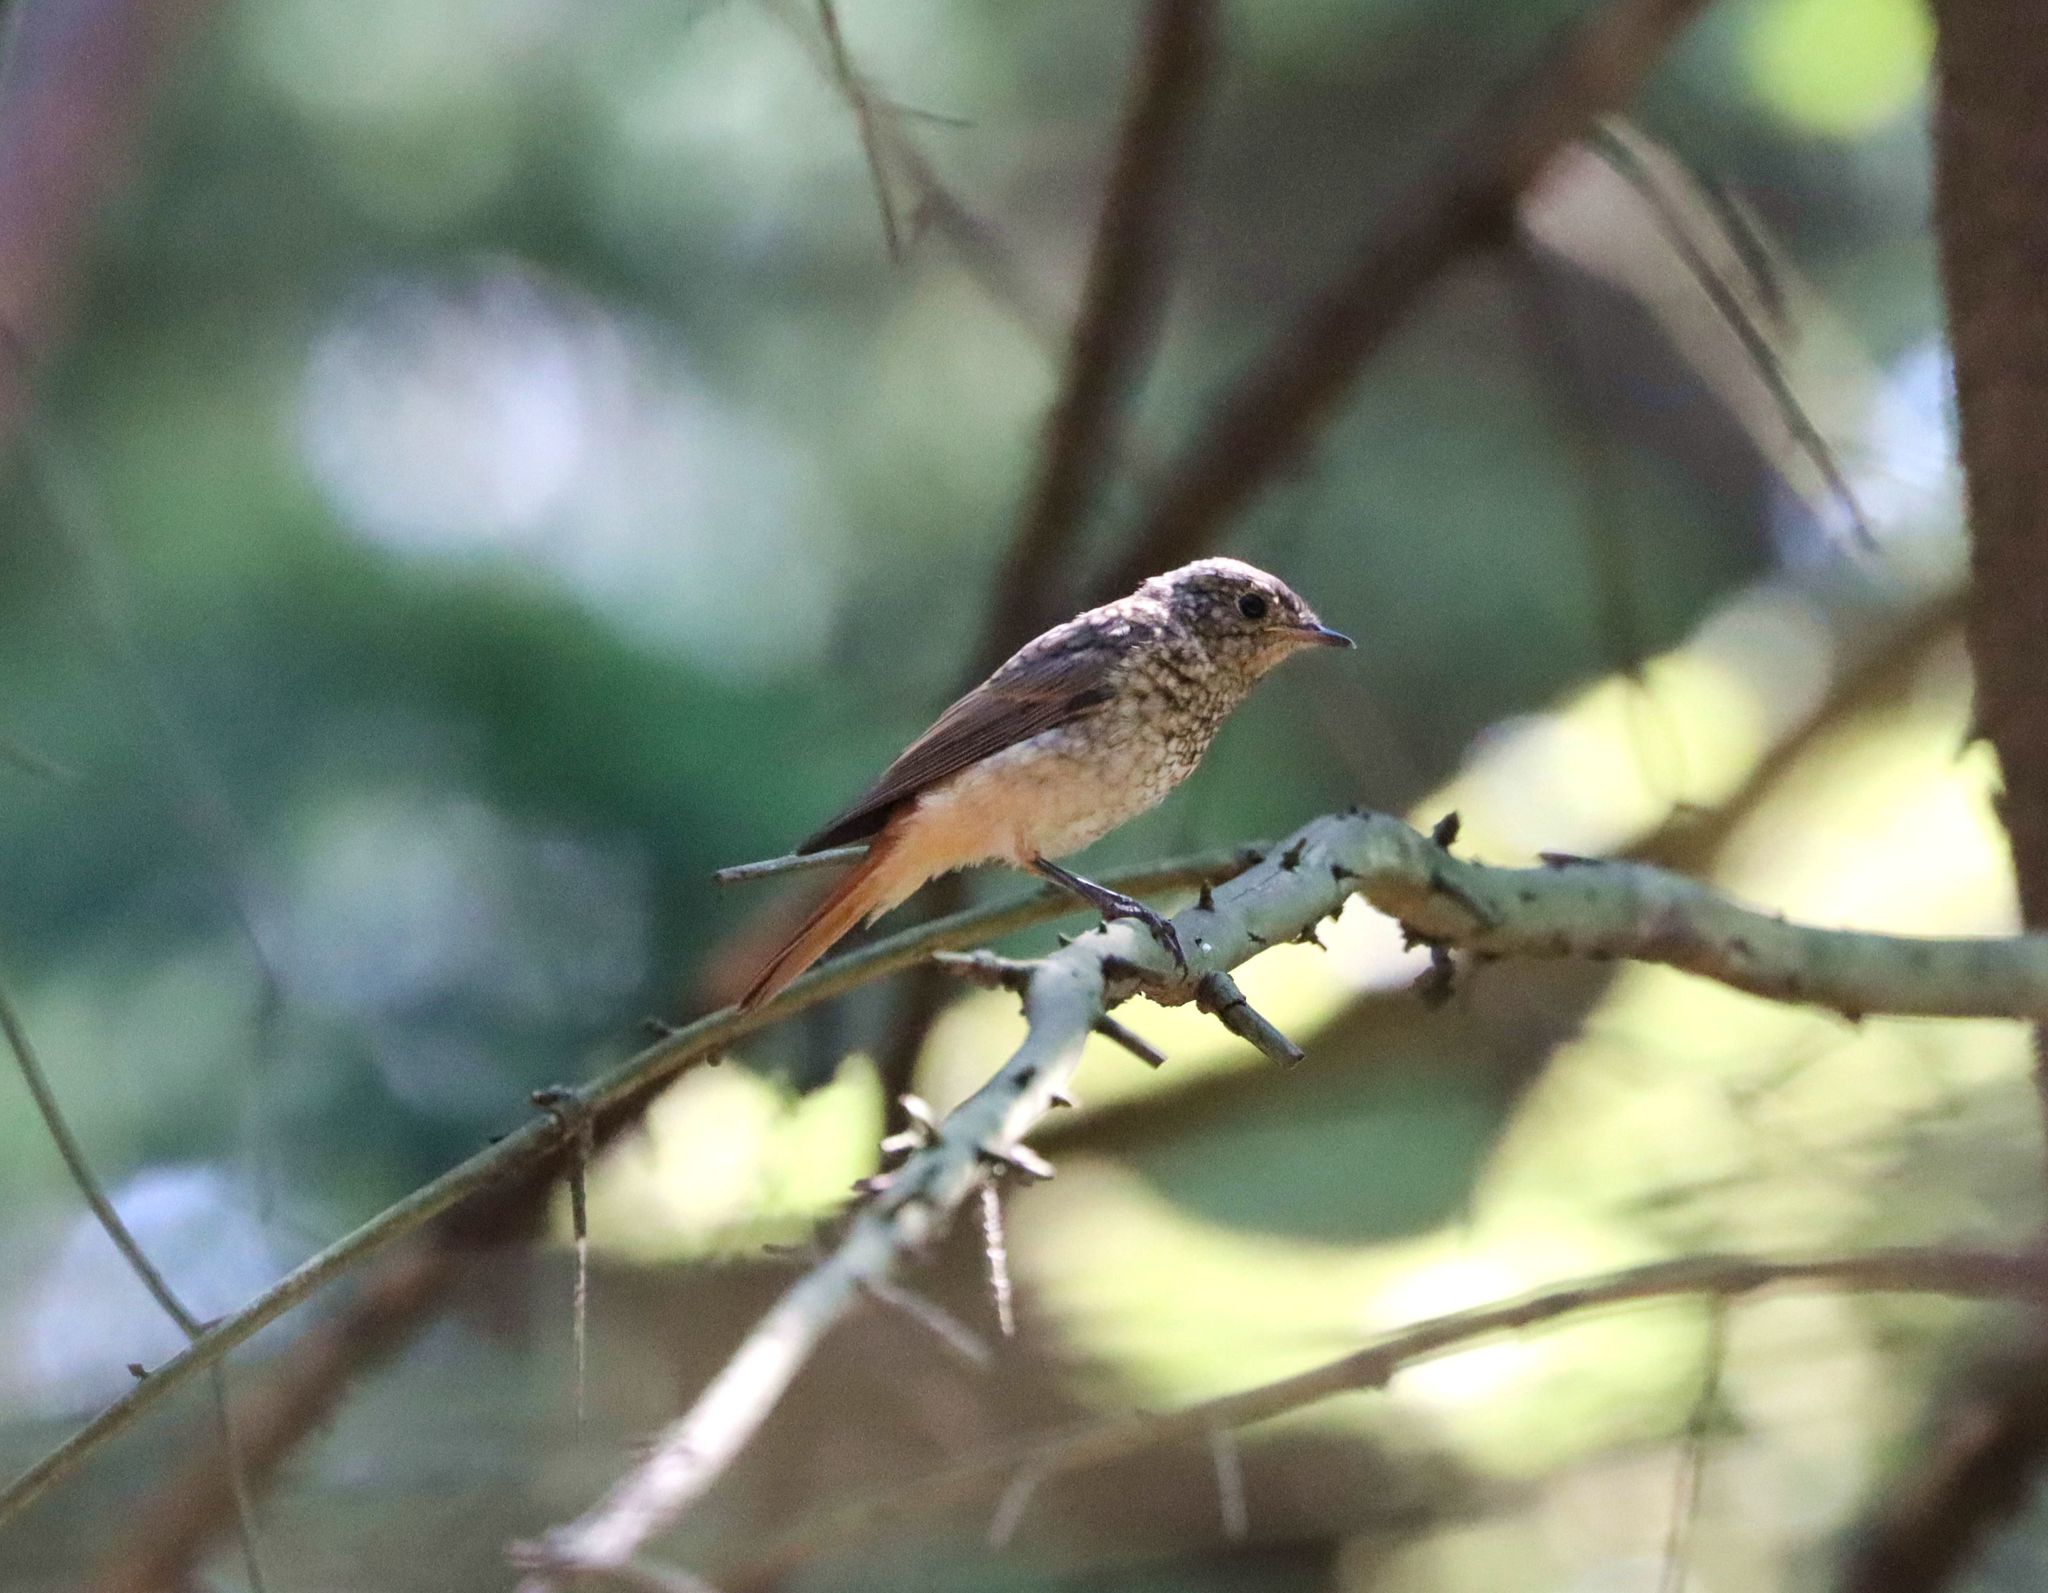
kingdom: Animalia
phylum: Chordata
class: Aves
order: Passeriformes
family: Muscicapidae
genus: Phoenicurus
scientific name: Phoenicurus phoenicurus
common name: Common redstart
